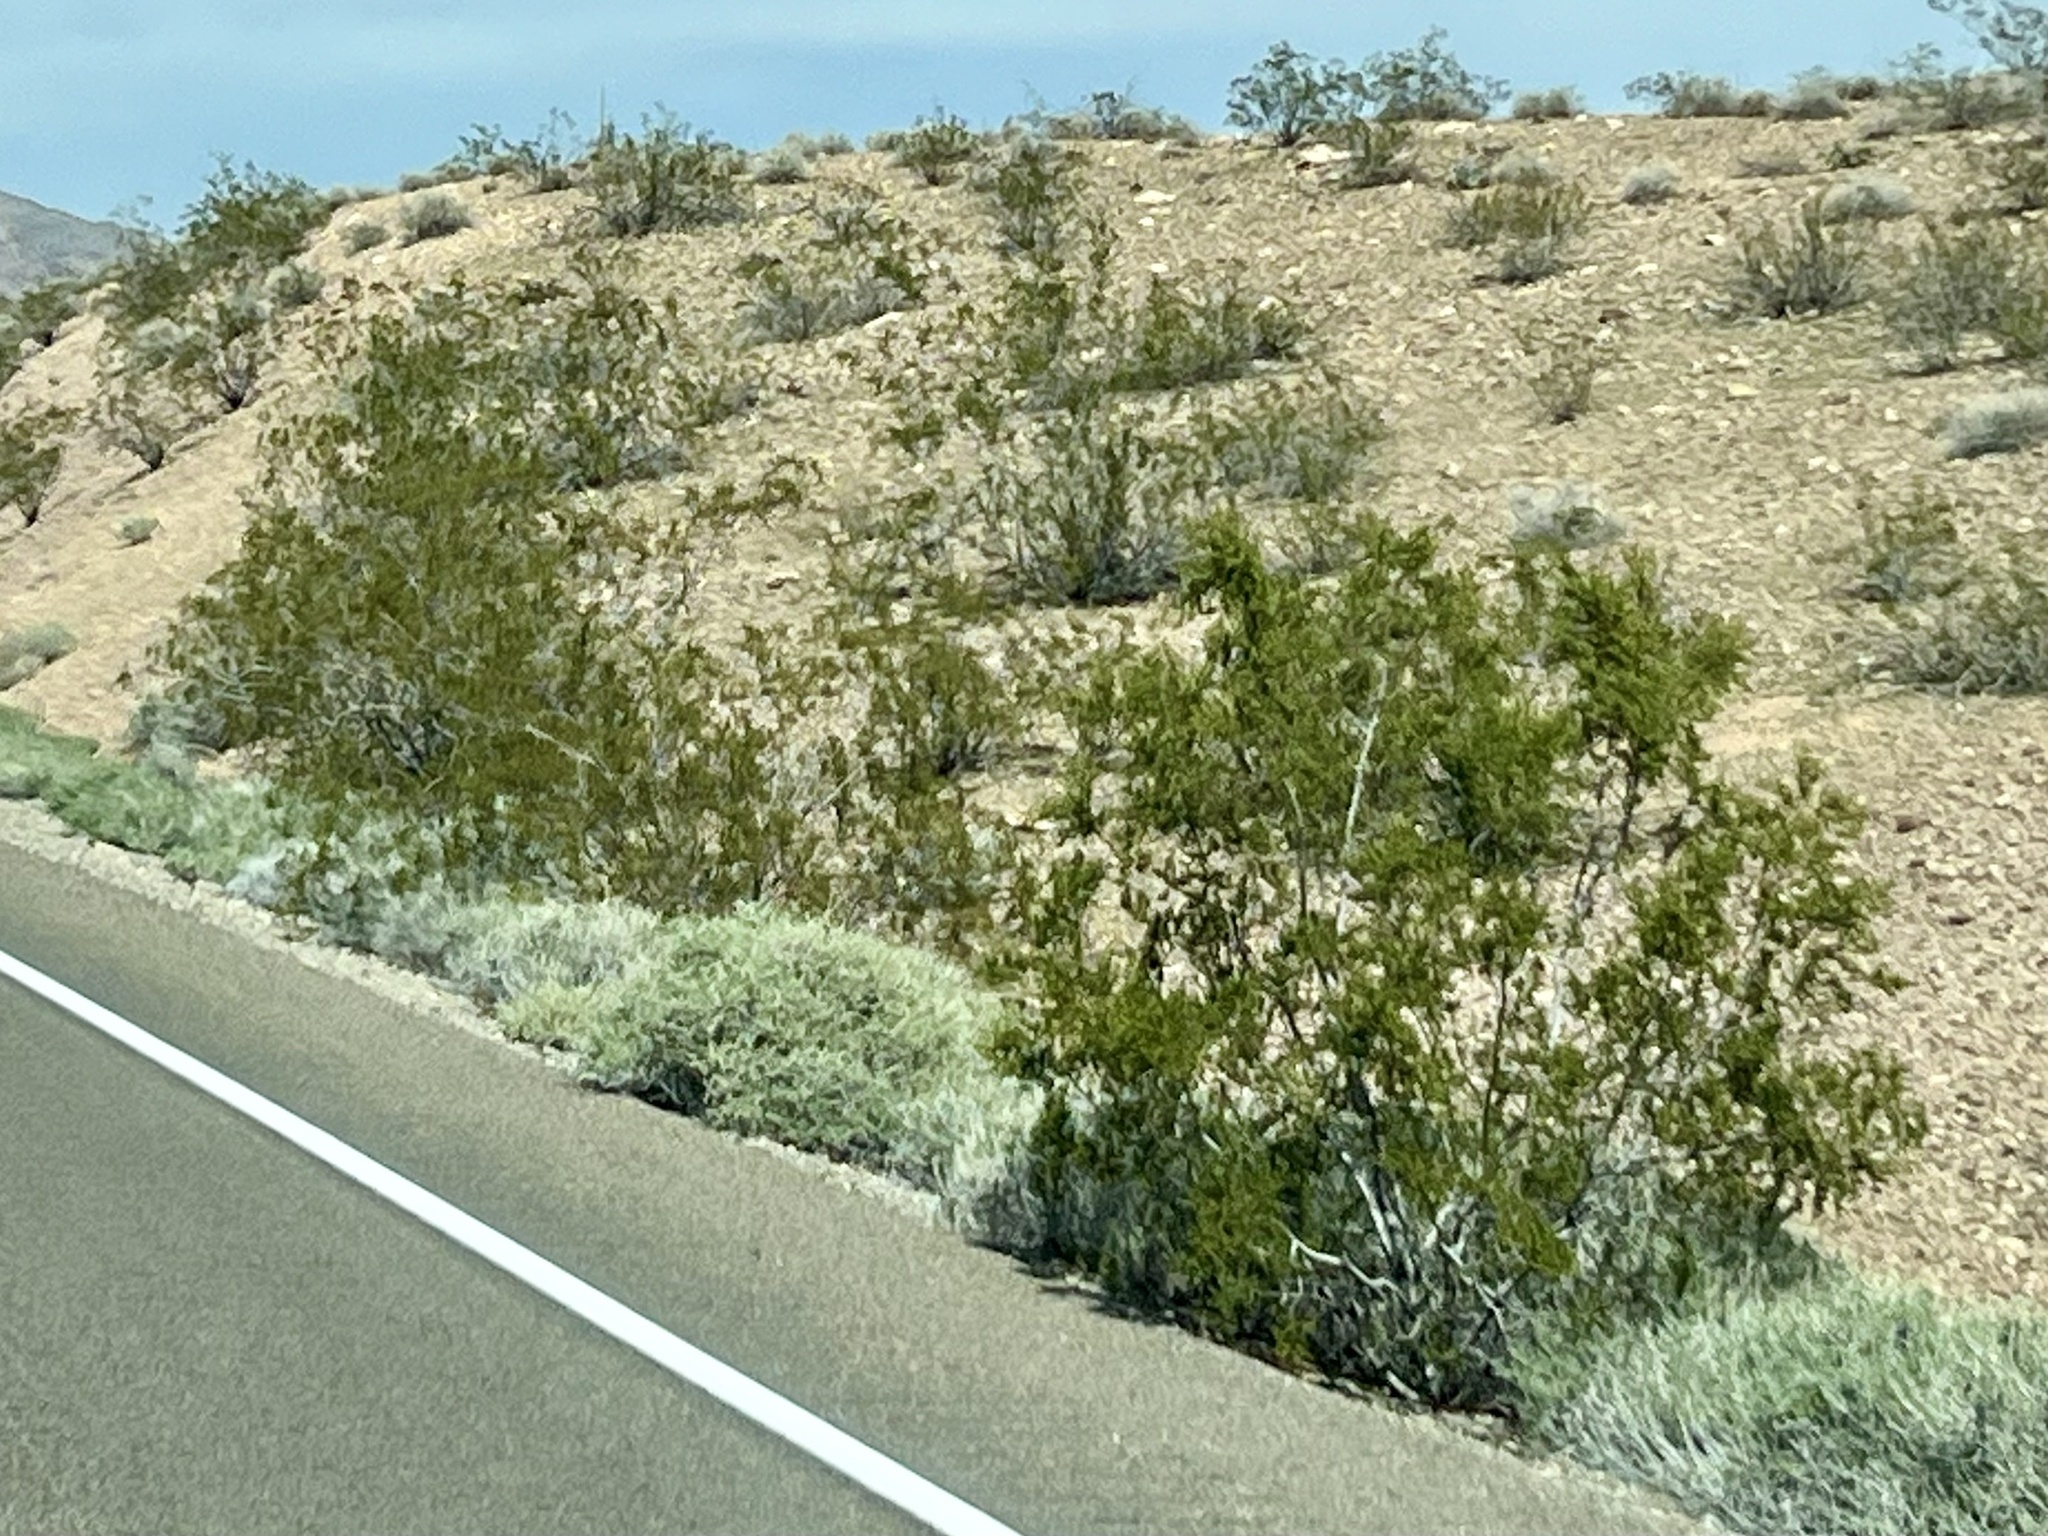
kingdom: Plantae
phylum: Tracheophyta
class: Magnoliopsida
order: Zygophyllales
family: Zygophyllaceae
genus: Larrea
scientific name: Larrea tridentata
